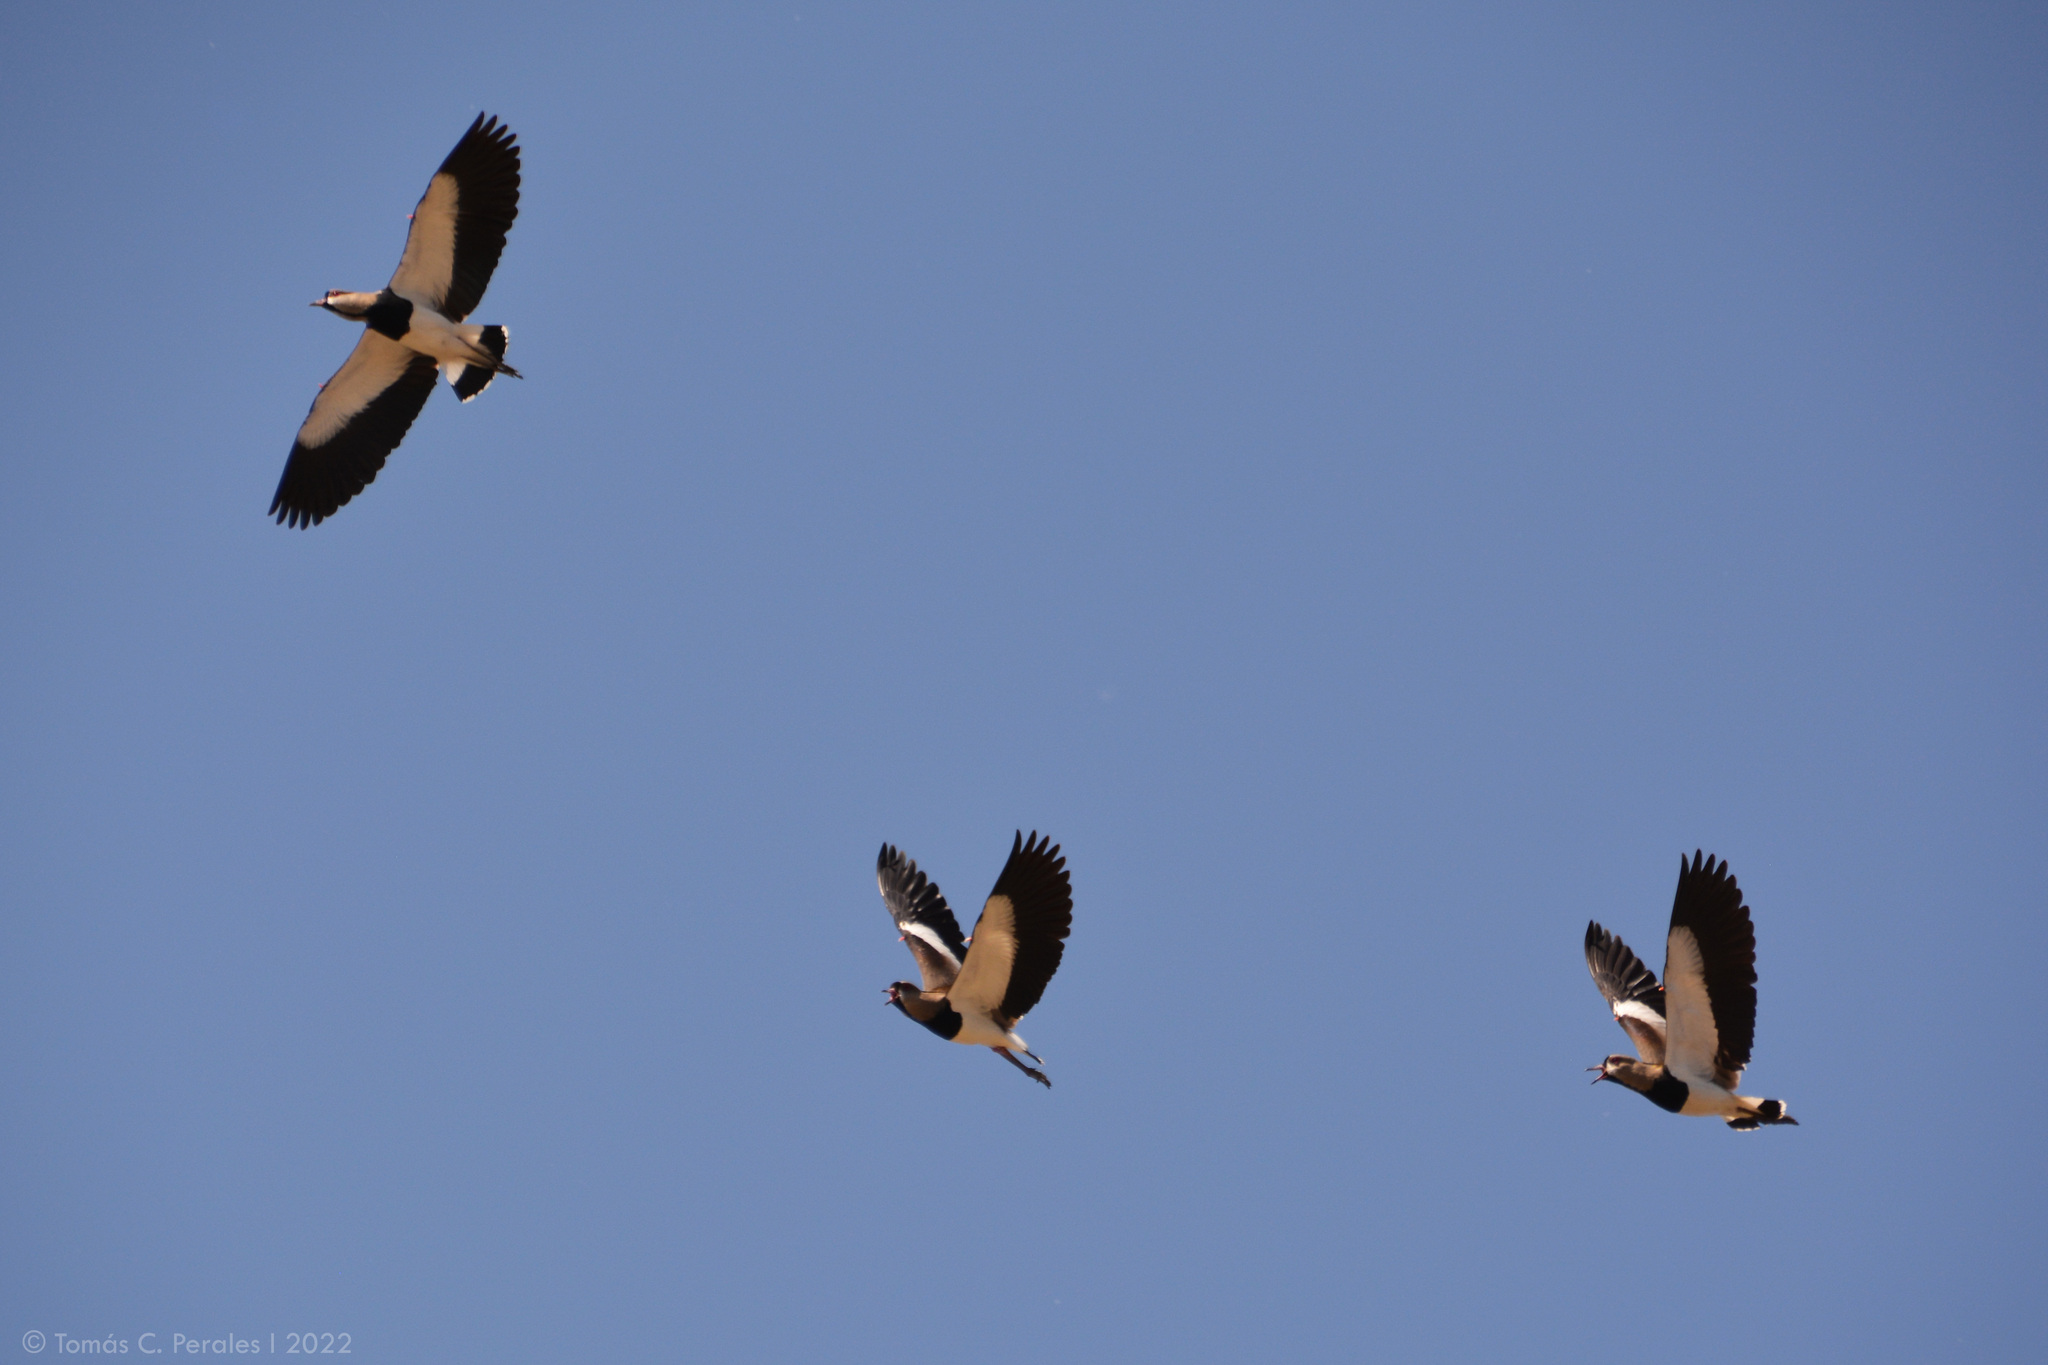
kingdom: Animalia
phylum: Chordata
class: Aves
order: Charadriiformes
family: Charadriidae
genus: Vanellus
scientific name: Vanellus chilensis
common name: Southern lapwing
